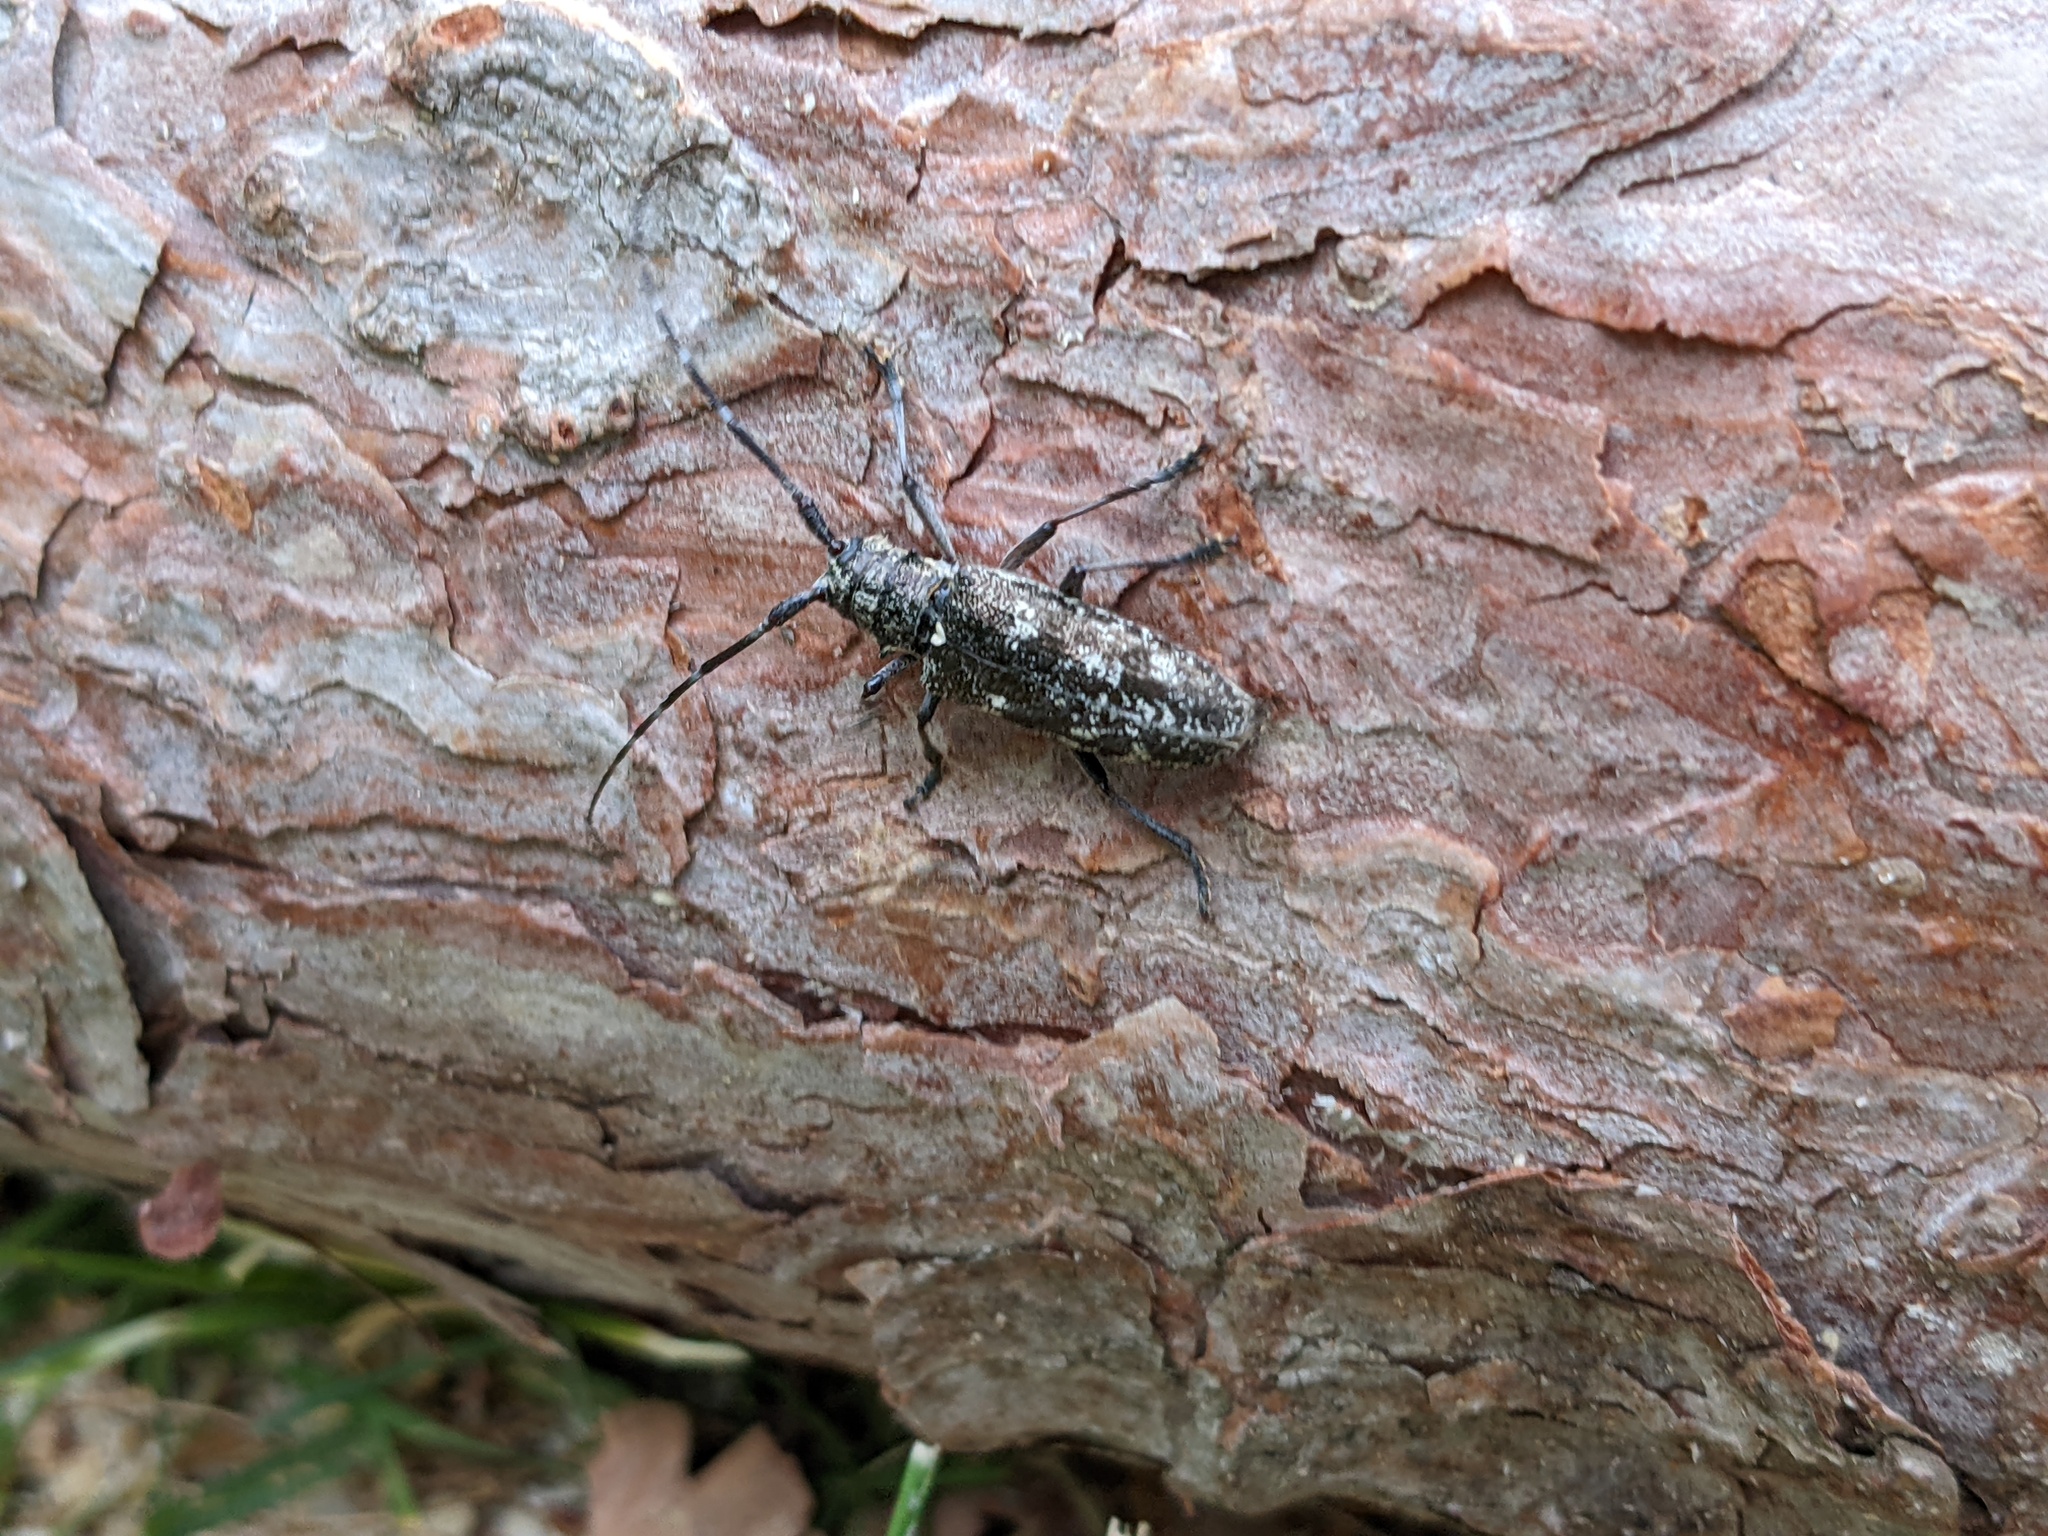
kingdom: Animalia
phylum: Arthropoda
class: Insecta
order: Coleoptera
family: Cerambycidae
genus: Monochamus
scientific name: Monochamus scutellatus
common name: White-spotted sawyer beetle
